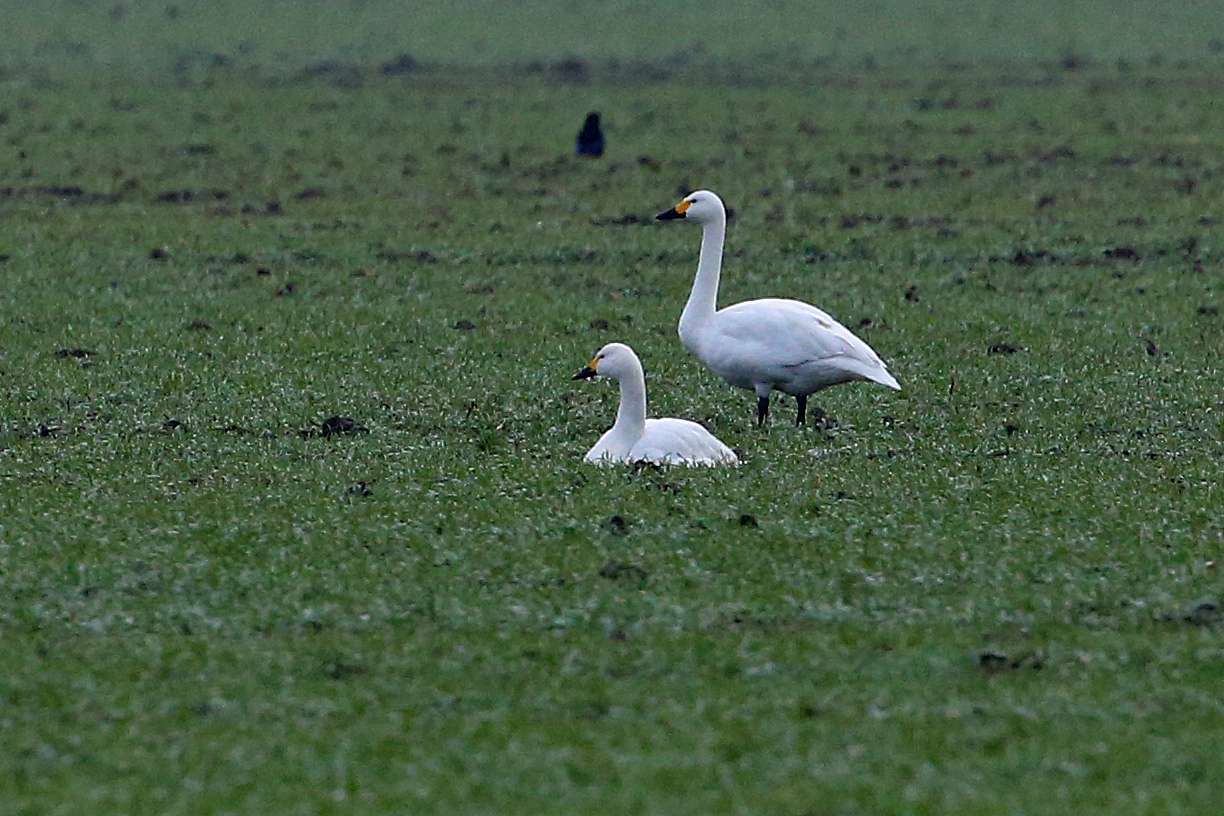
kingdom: Animalia
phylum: Chordata
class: Aves
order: Anseriformes
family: Anatidae
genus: Cygnus
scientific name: Cygnus columbianus
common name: Tundra swan
